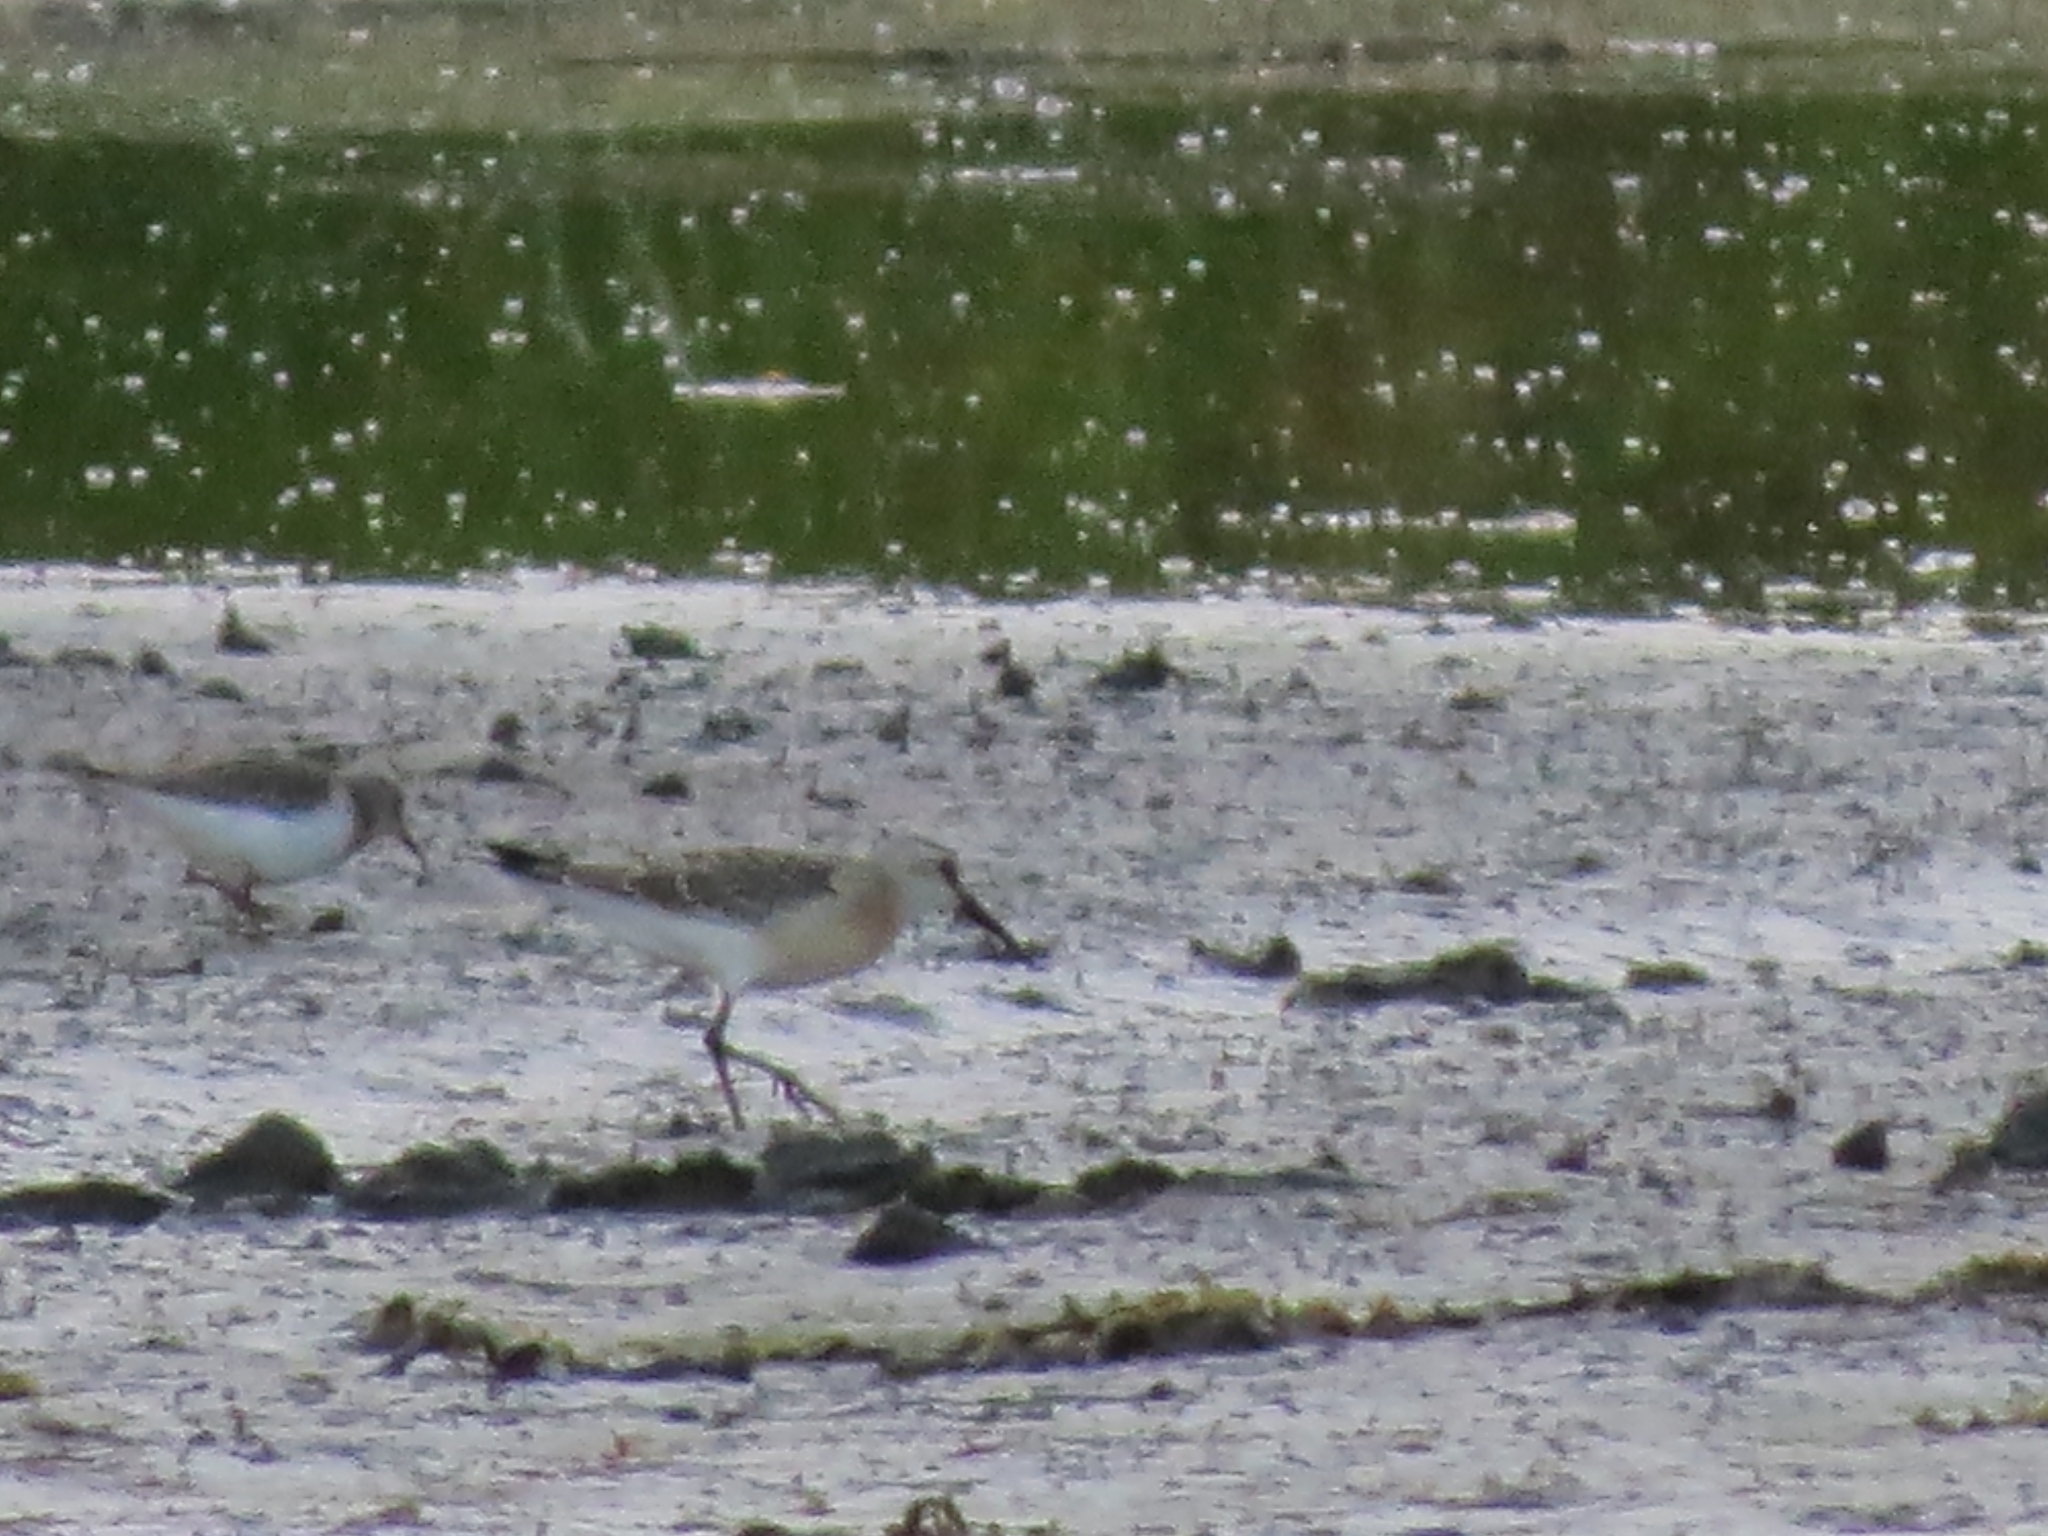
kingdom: Animalia
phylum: Chordata
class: Aves
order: Charadriiformes
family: Scolopacidae
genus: Calidris
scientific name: Calidris ferruginea
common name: Curlew sandpiper
